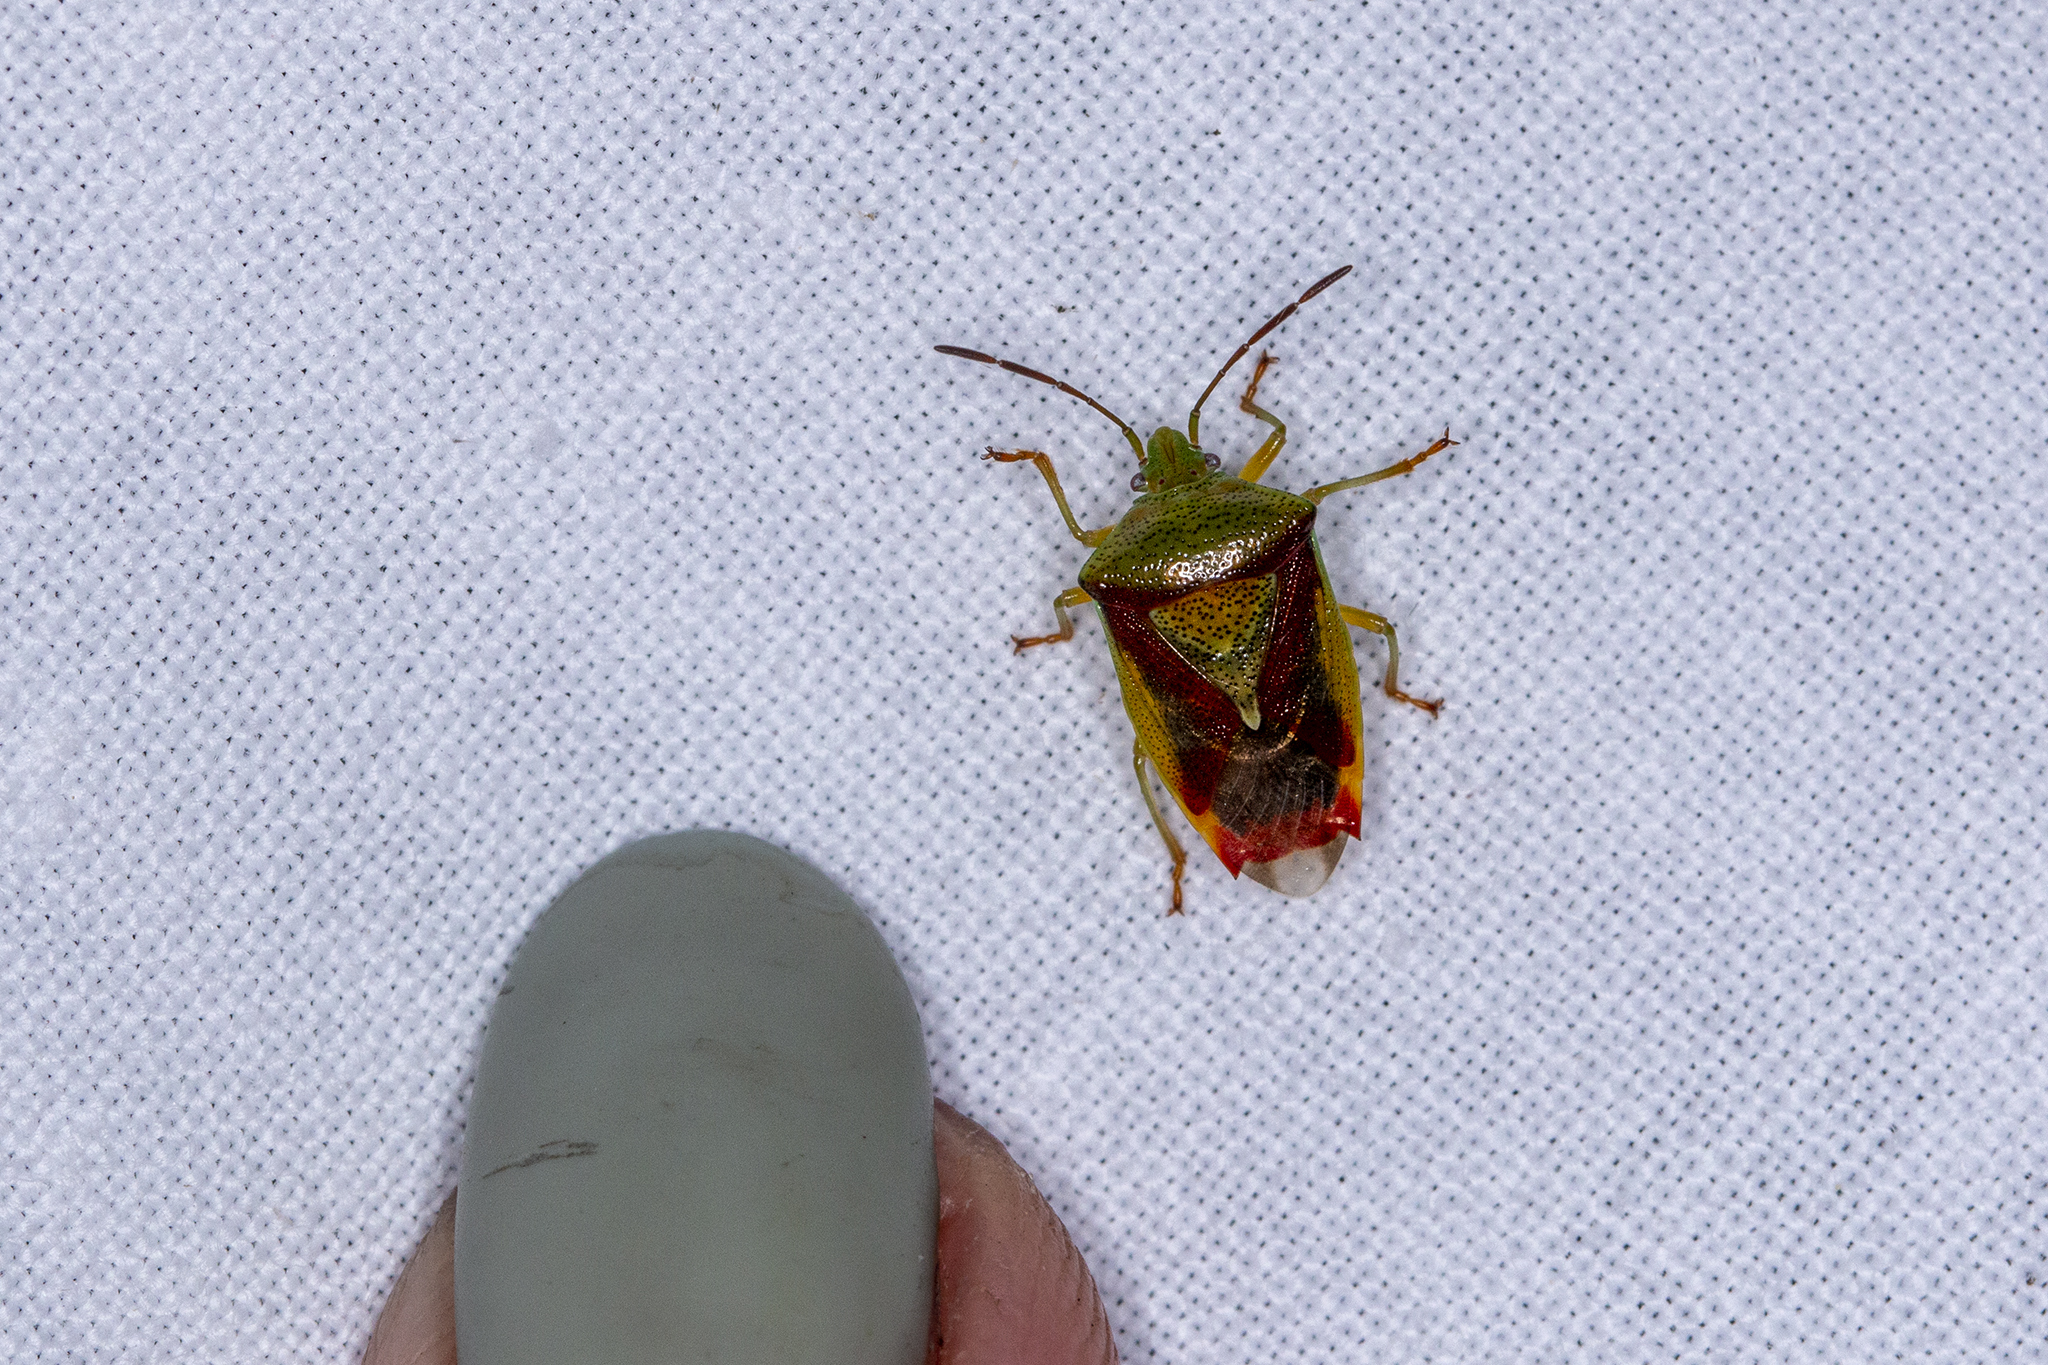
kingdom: Animalia
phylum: Arthropoda
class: Insecta
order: Hemiptera
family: Acanthosomatidae
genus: Elasmostethus
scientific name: Elasmostethus interstinctus
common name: Birch shieldbug
